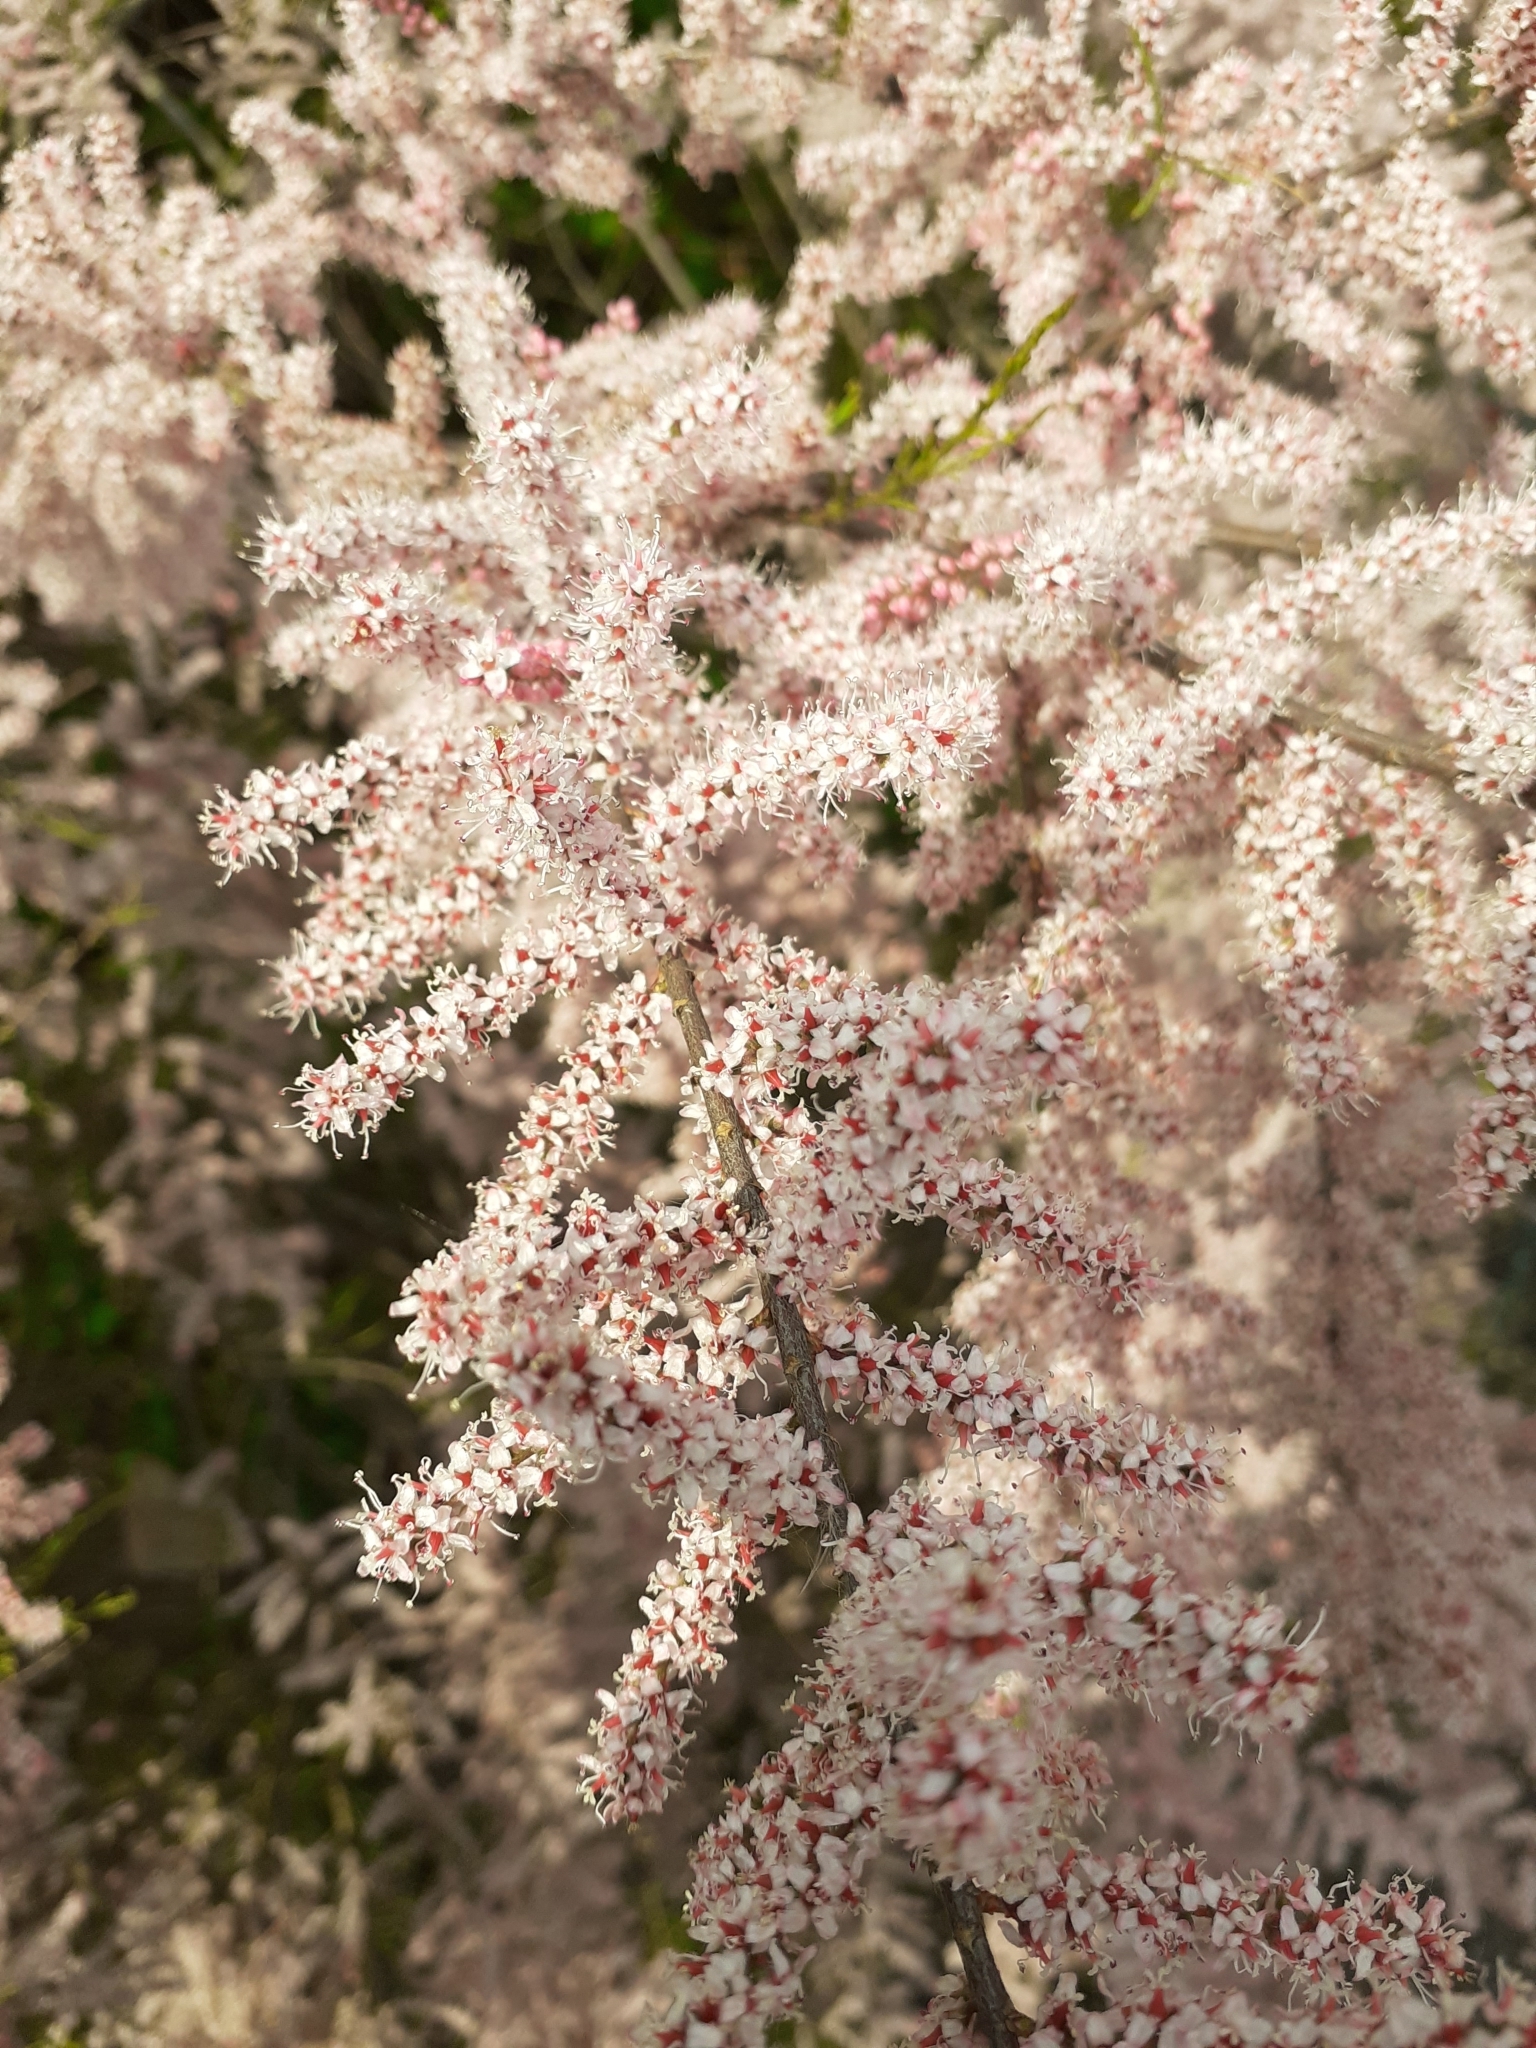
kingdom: Plantae
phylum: Tracheophyta
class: Magnoliopsida
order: Caryophyllales
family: Tamaricaceae
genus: Tamarix
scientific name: Tamarix parviflora
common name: Smallflower tamarisk
